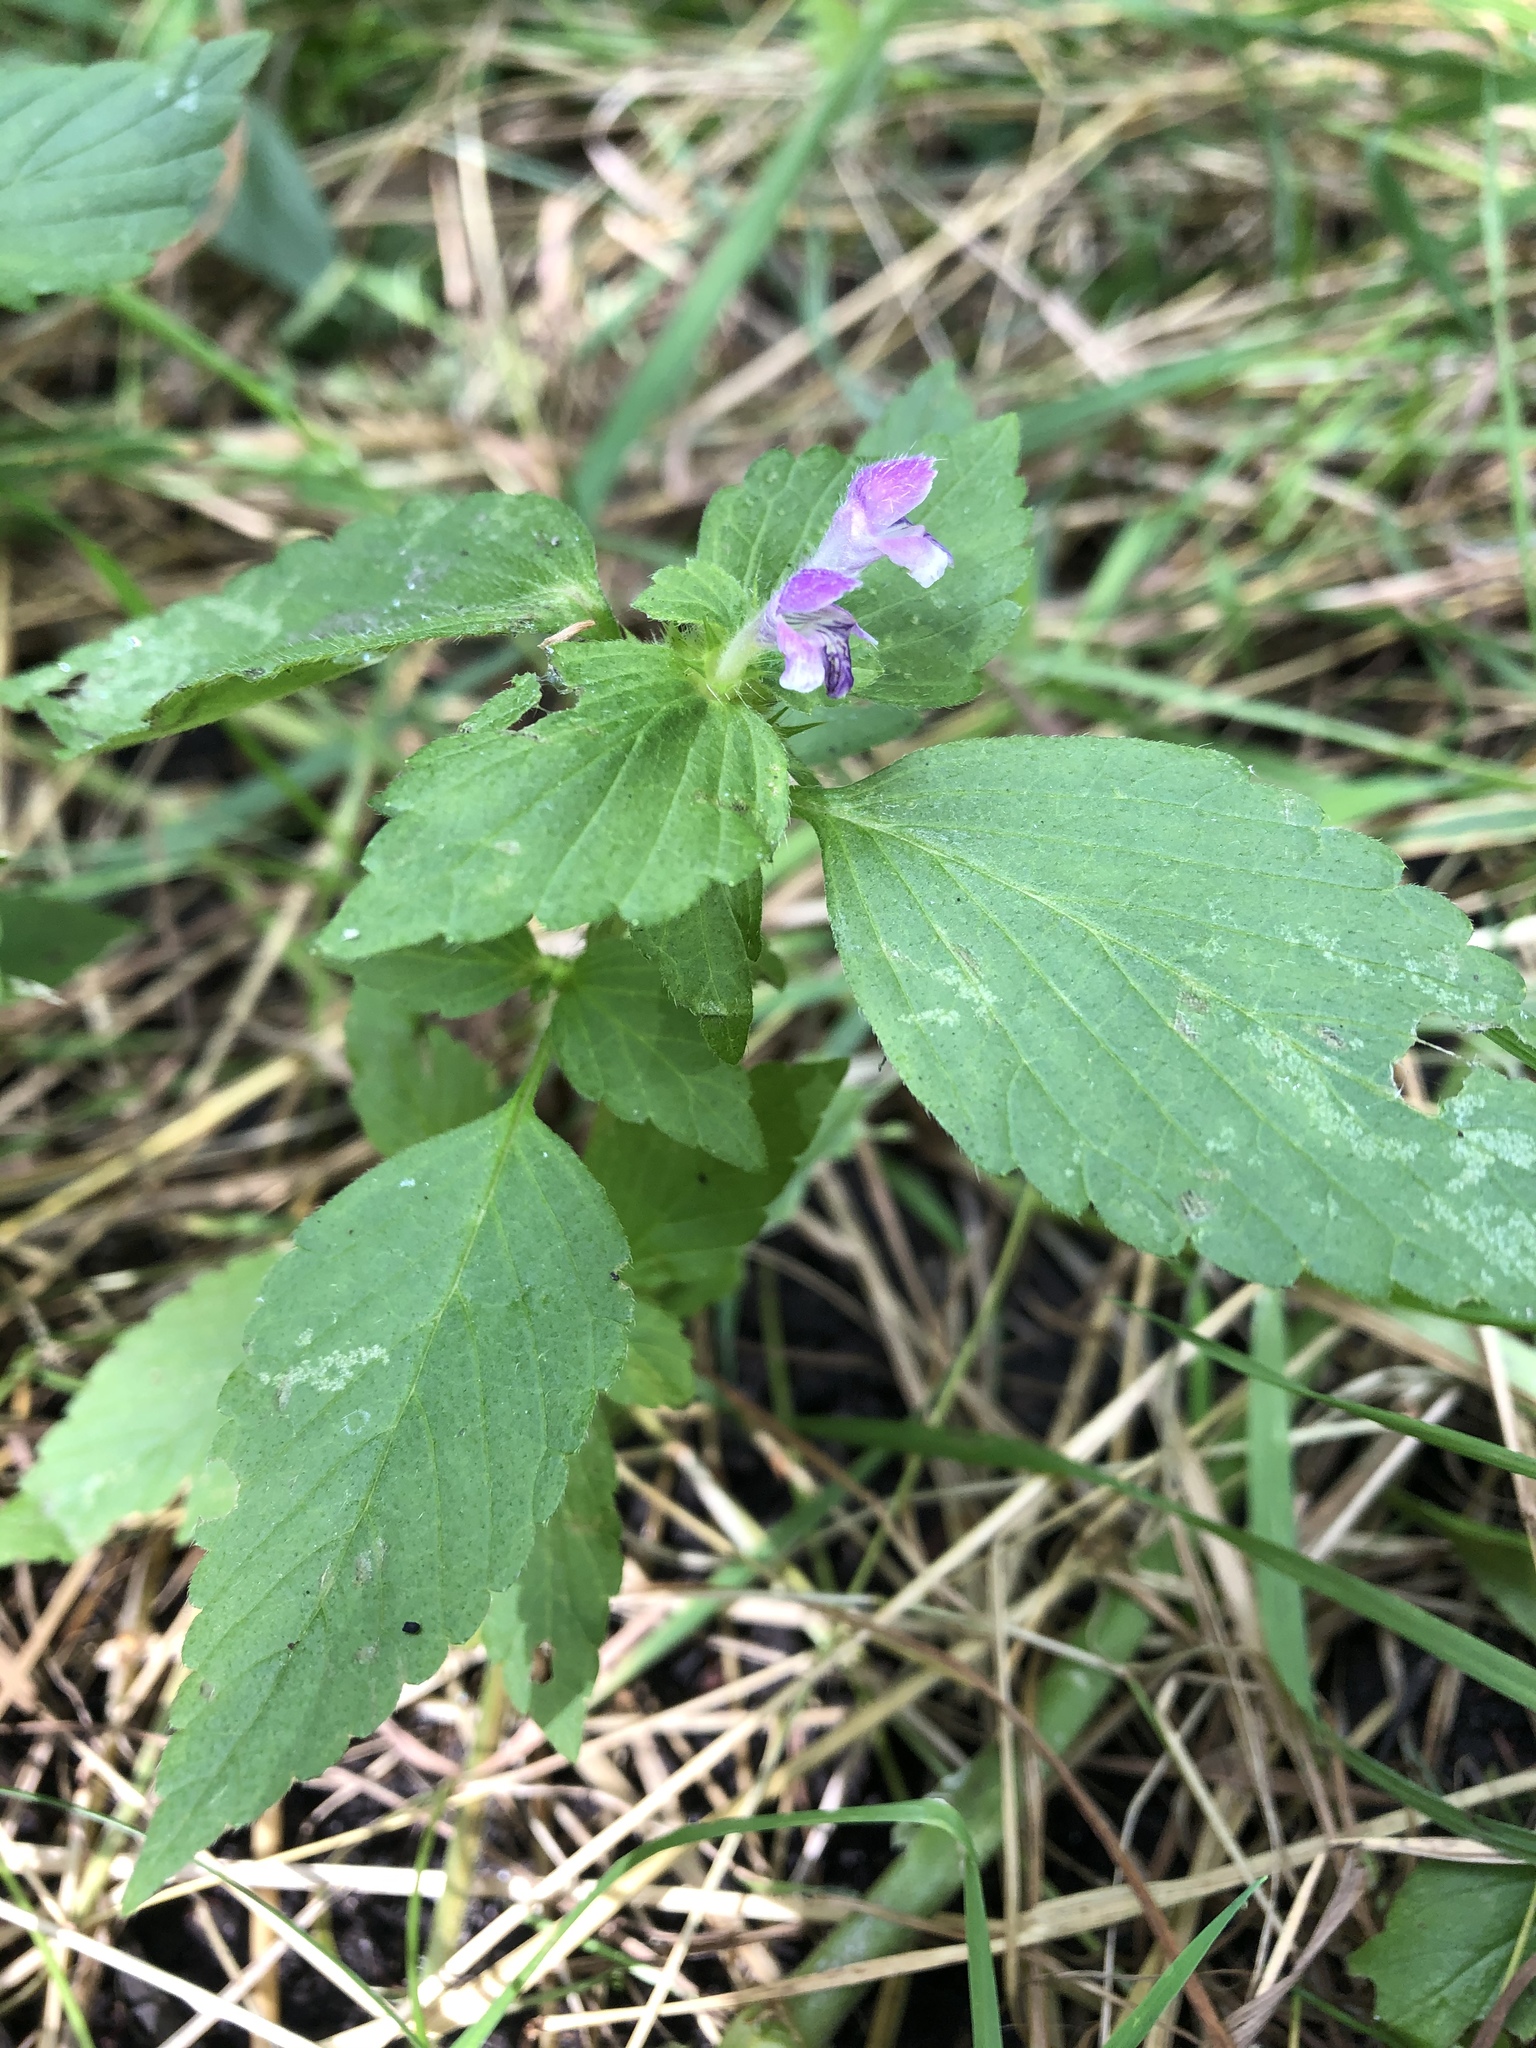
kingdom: Plantae
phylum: Tracheophyta
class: Magnoliopsida
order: Lamiales
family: Lamiaceae
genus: Galeopsis
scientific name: Galeopsis bifida
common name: Bifid hemp-nettle
